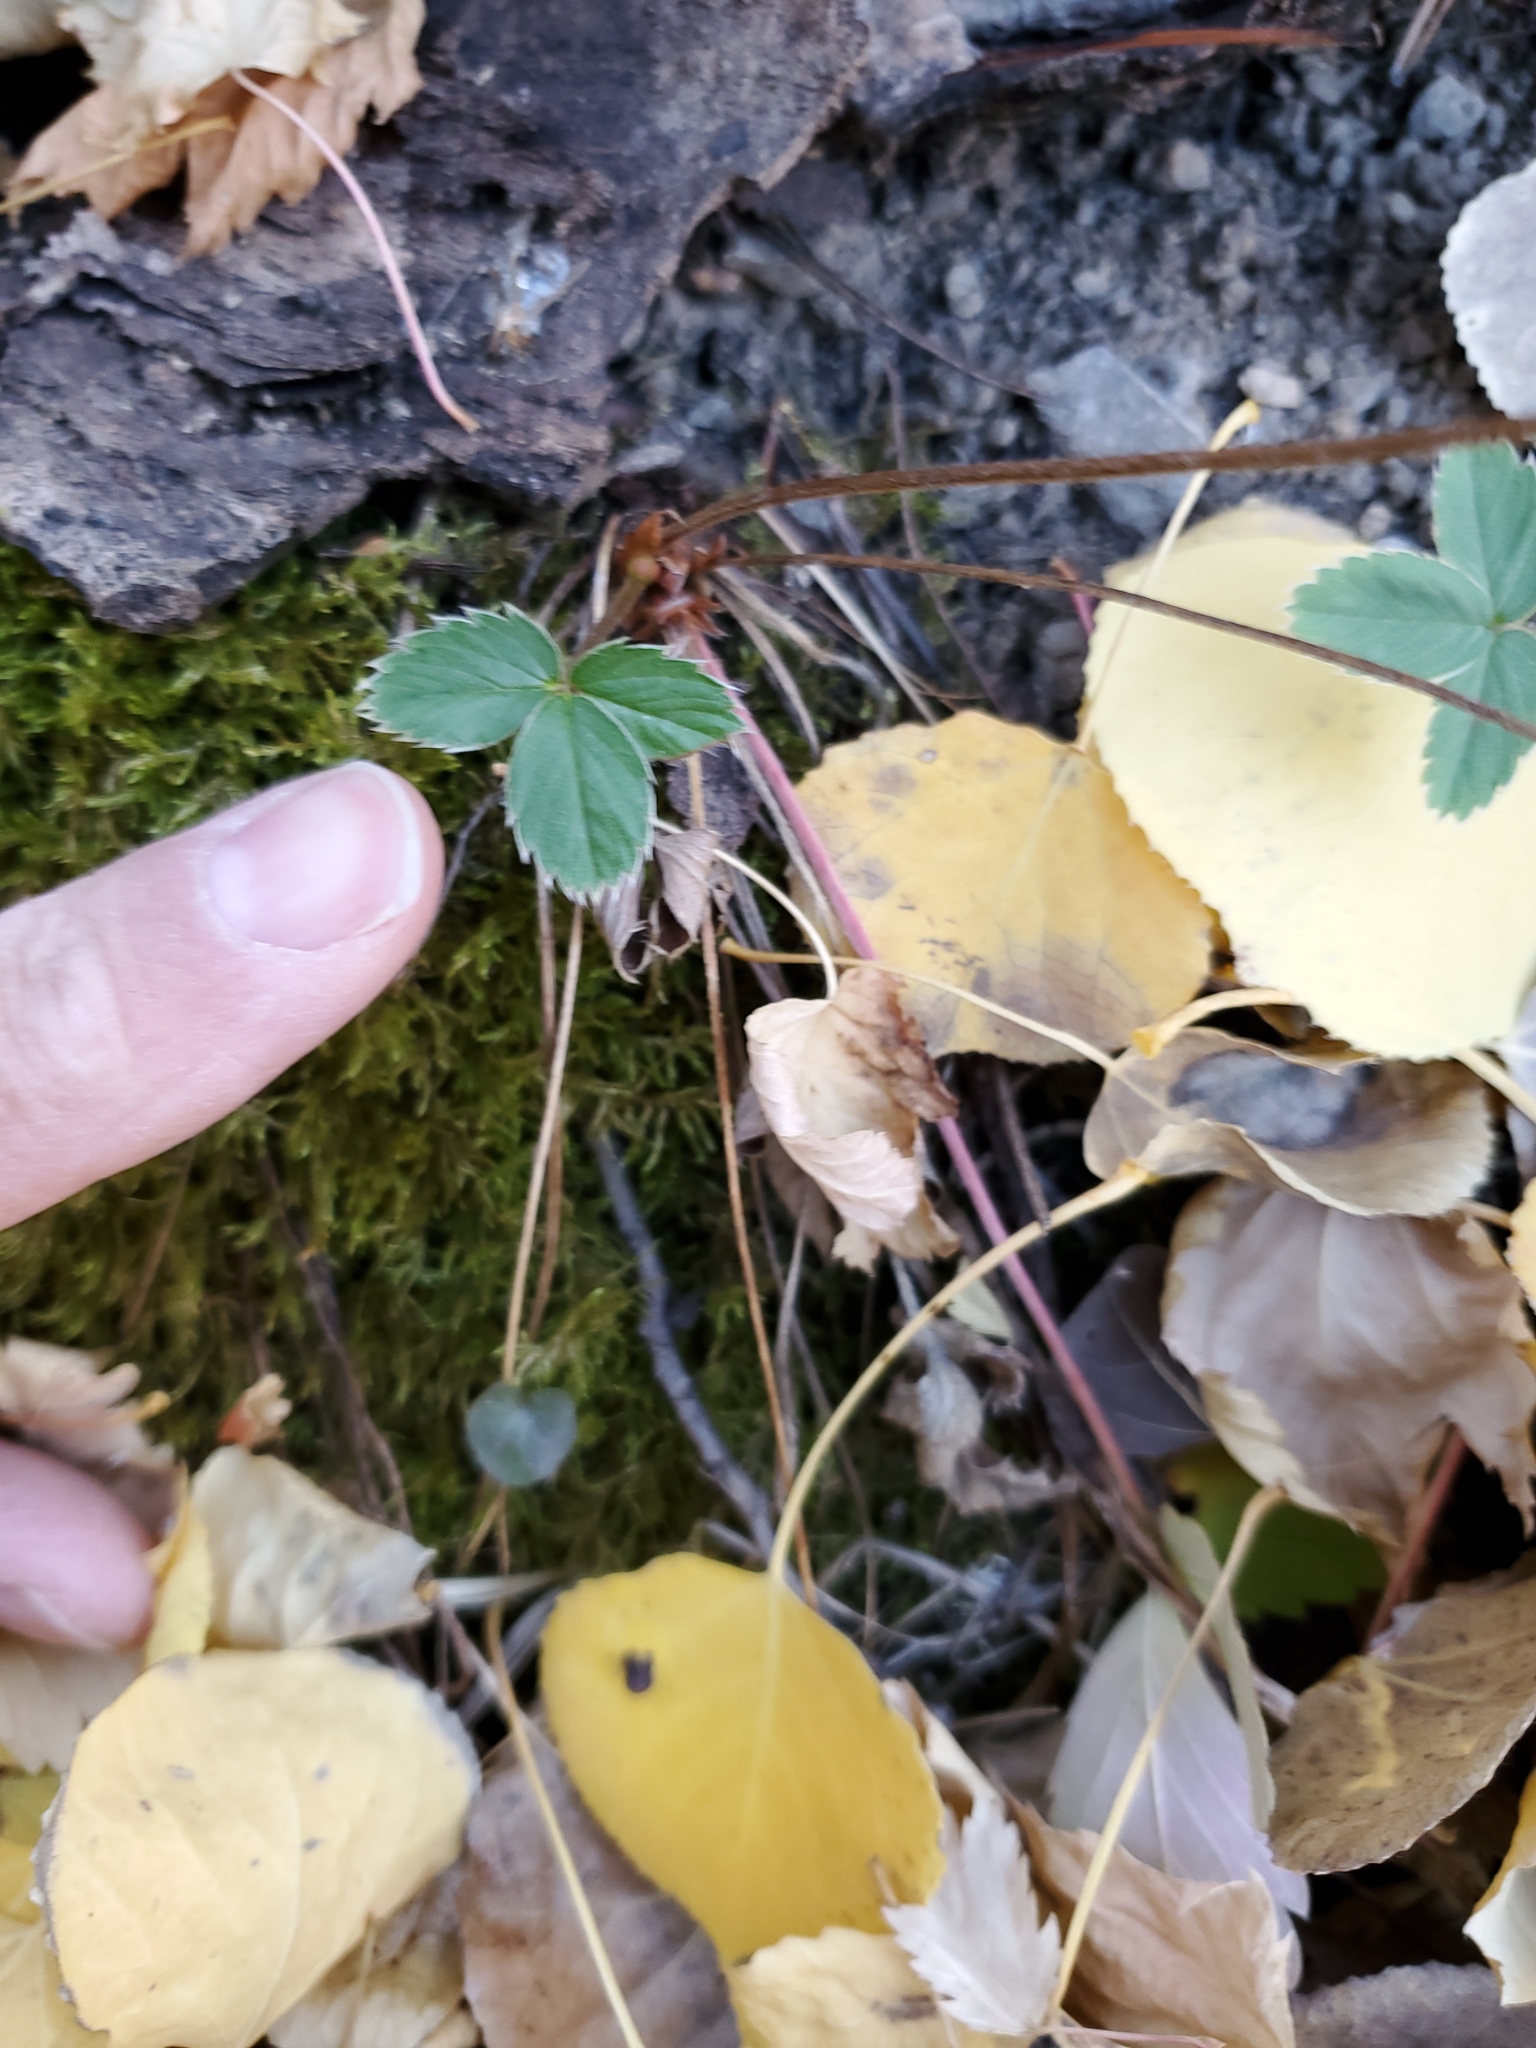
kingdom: Plantae
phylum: Tracheophyta
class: Magnoliopsida
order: Rosales
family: Rosaceae
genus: Fragaria
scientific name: Fragaria virginiana
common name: Thickleaved wild strawberry
